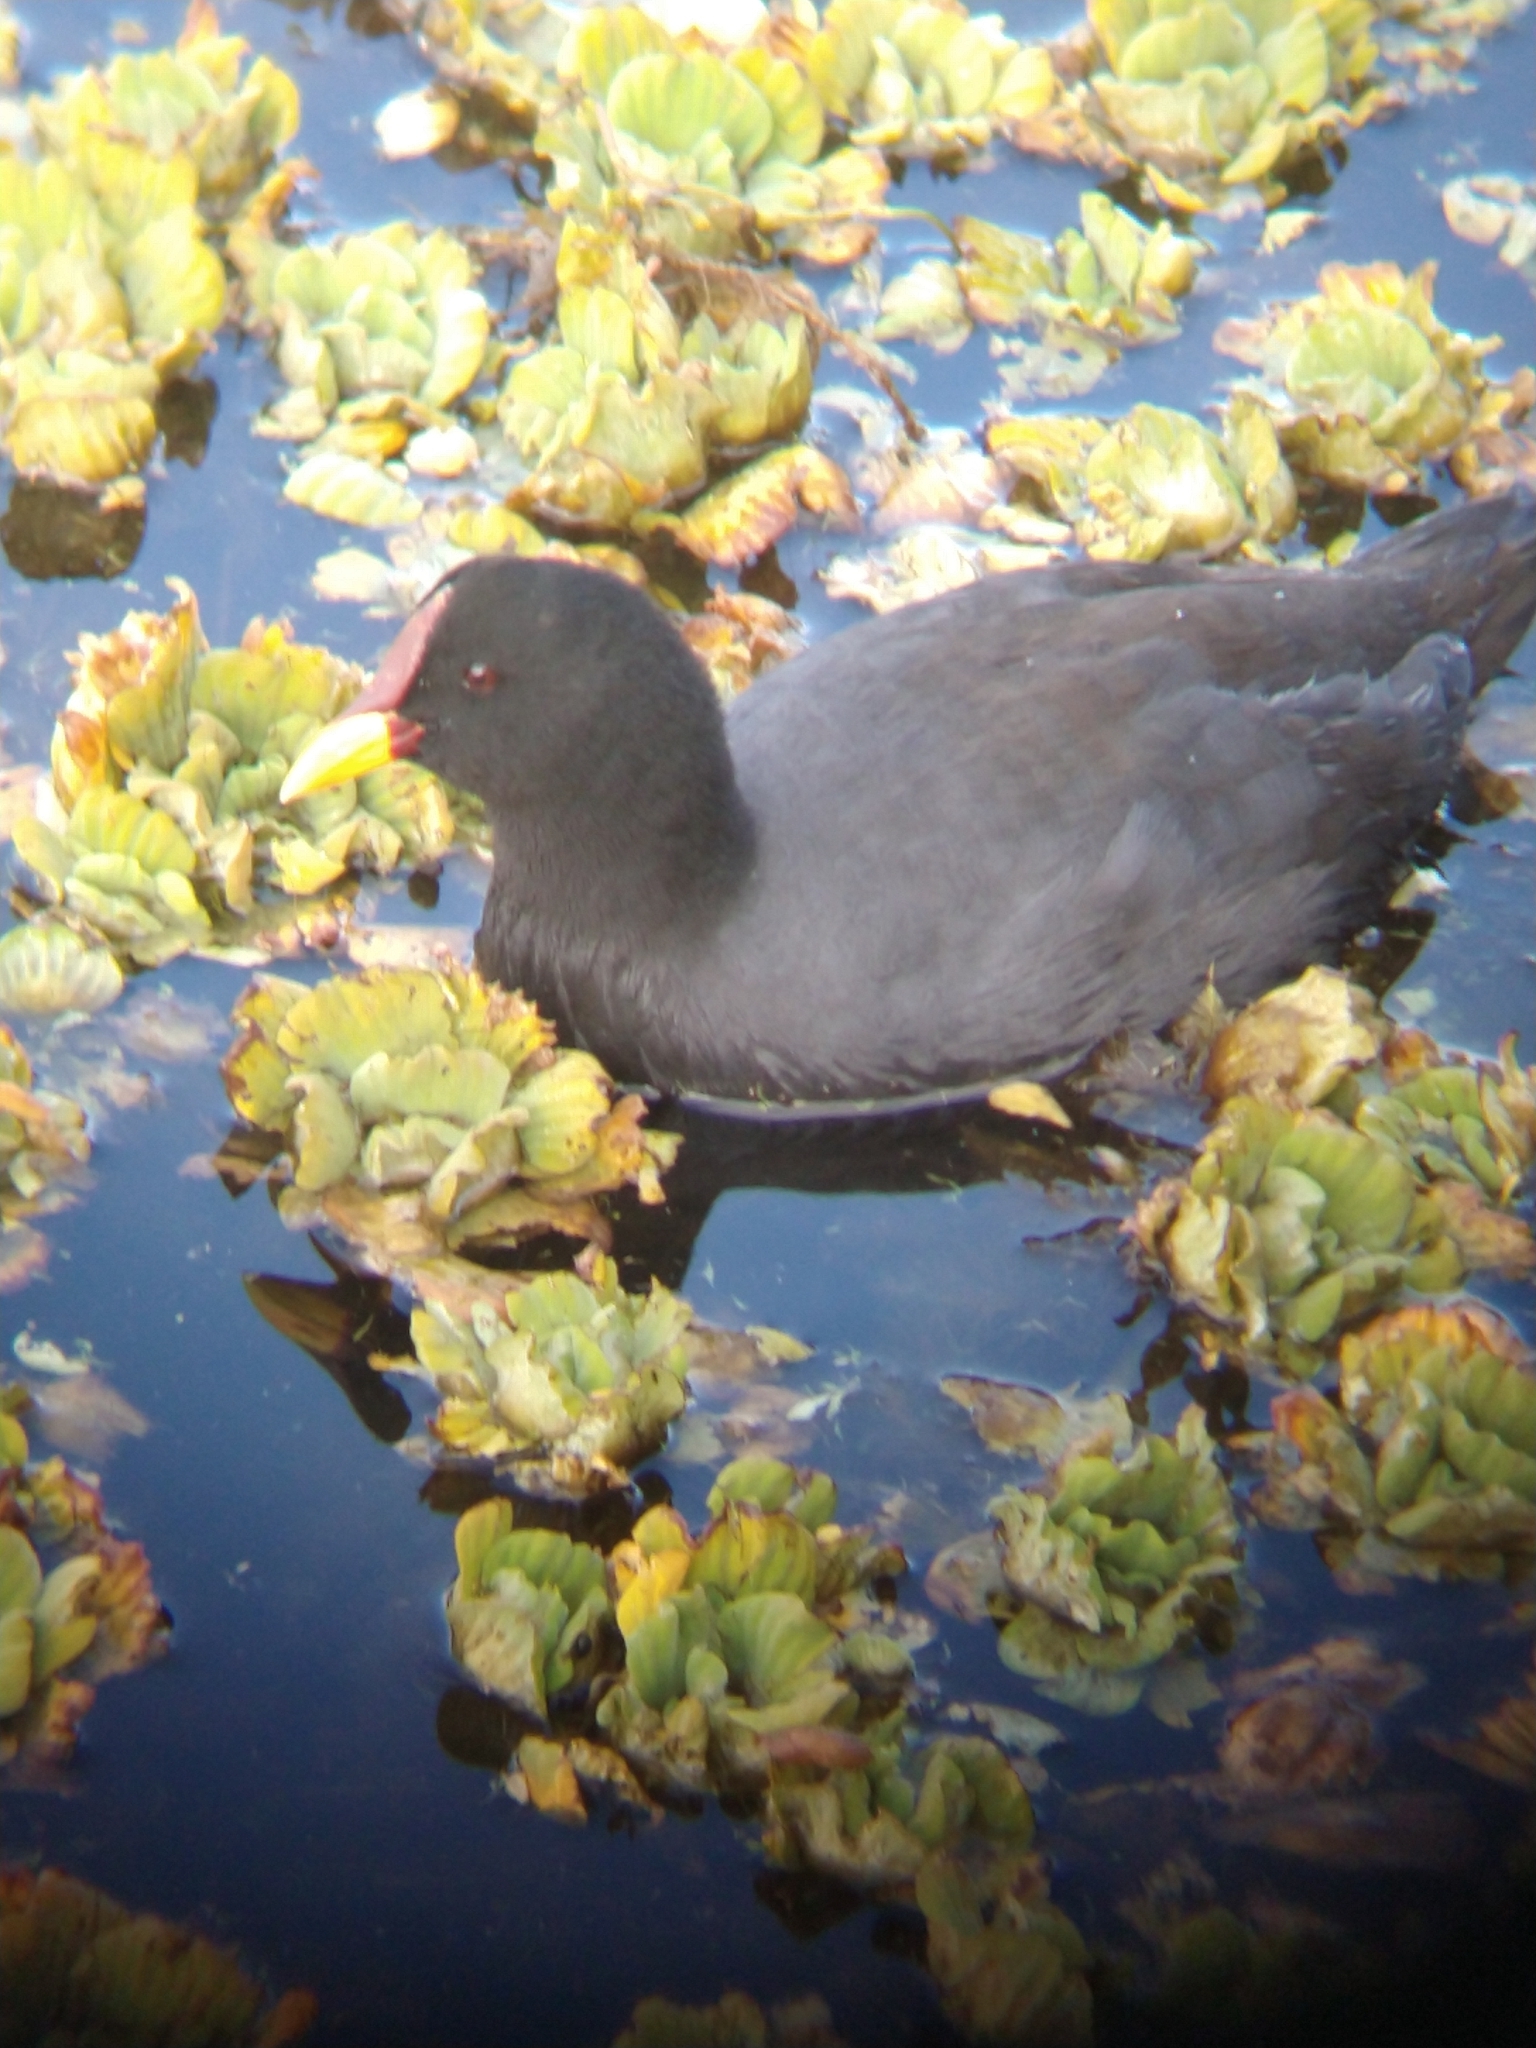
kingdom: Animalia
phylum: Chordata
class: Aves
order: Gruiformes
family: Rallidae
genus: Fulica
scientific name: Fulica rufifrons
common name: Red-fronted coot
